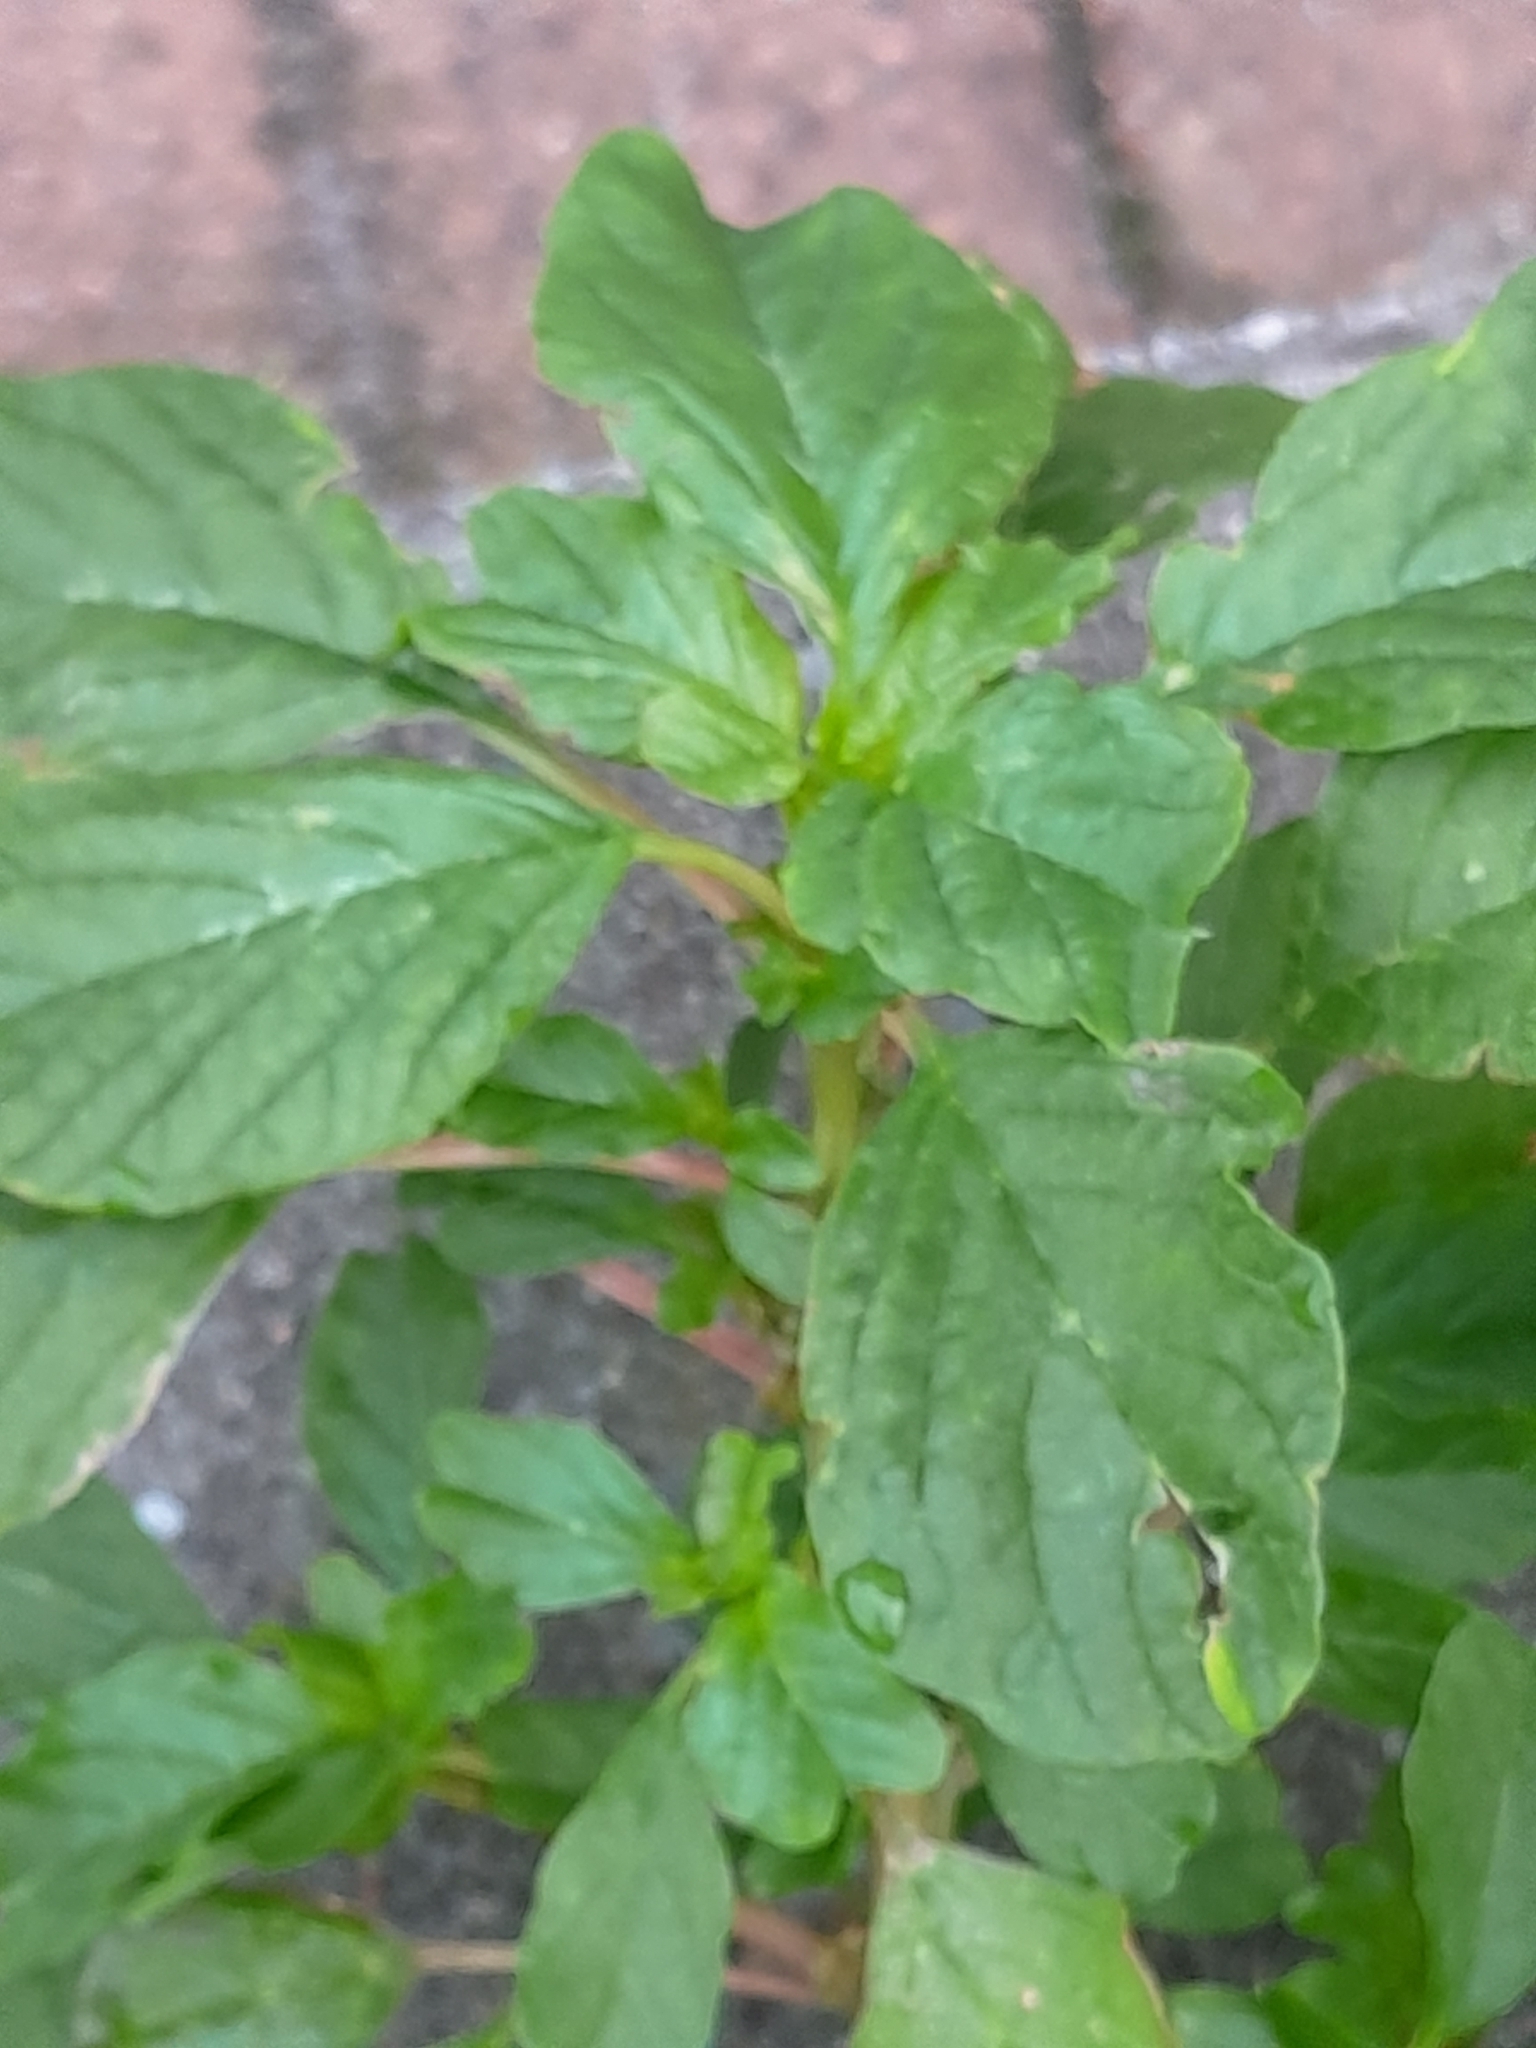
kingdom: Plantae
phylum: Tracheophyta
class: Magnoliopsida
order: Caryophyllales
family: Amaranthaceae
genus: Amaranthus
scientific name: Amaranthus blitum
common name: Purple amaranth
